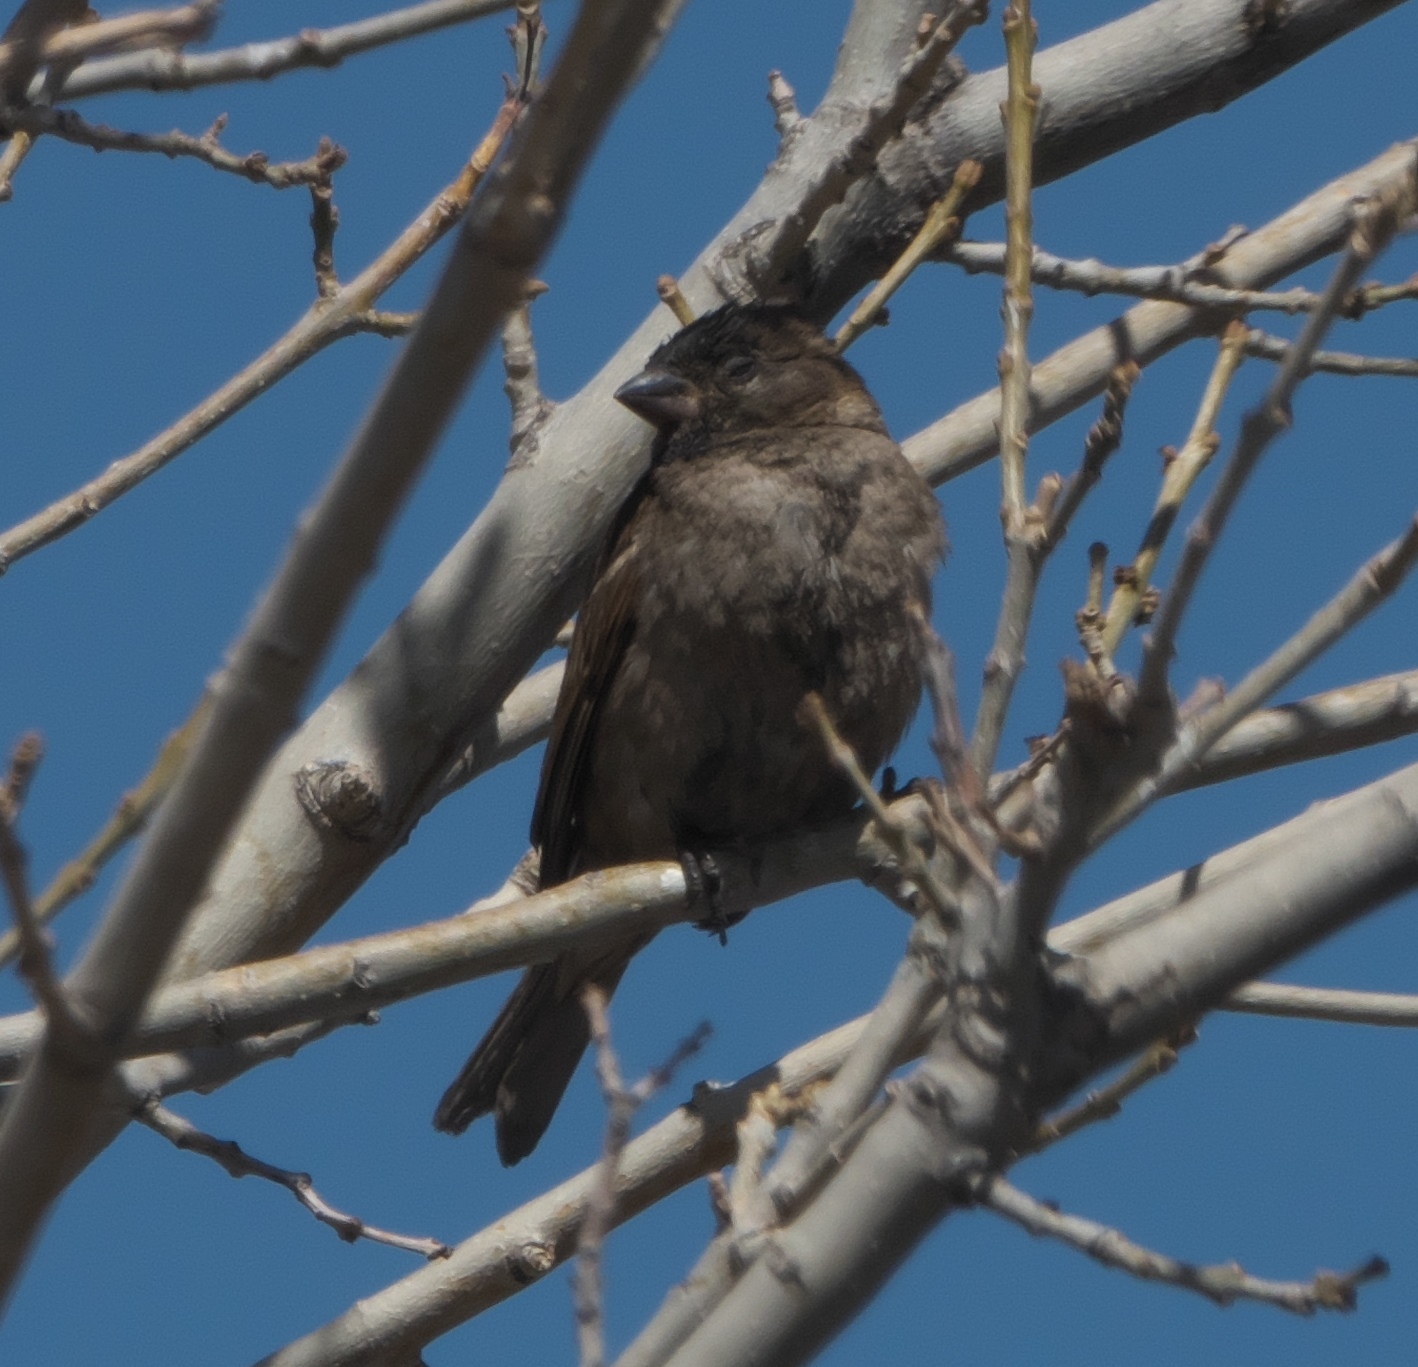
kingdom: Animalia
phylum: Chordata
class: Aves
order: Passeriformes
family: Passeridae
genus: Passer
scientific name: Passer domesticus
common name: House sparrow
